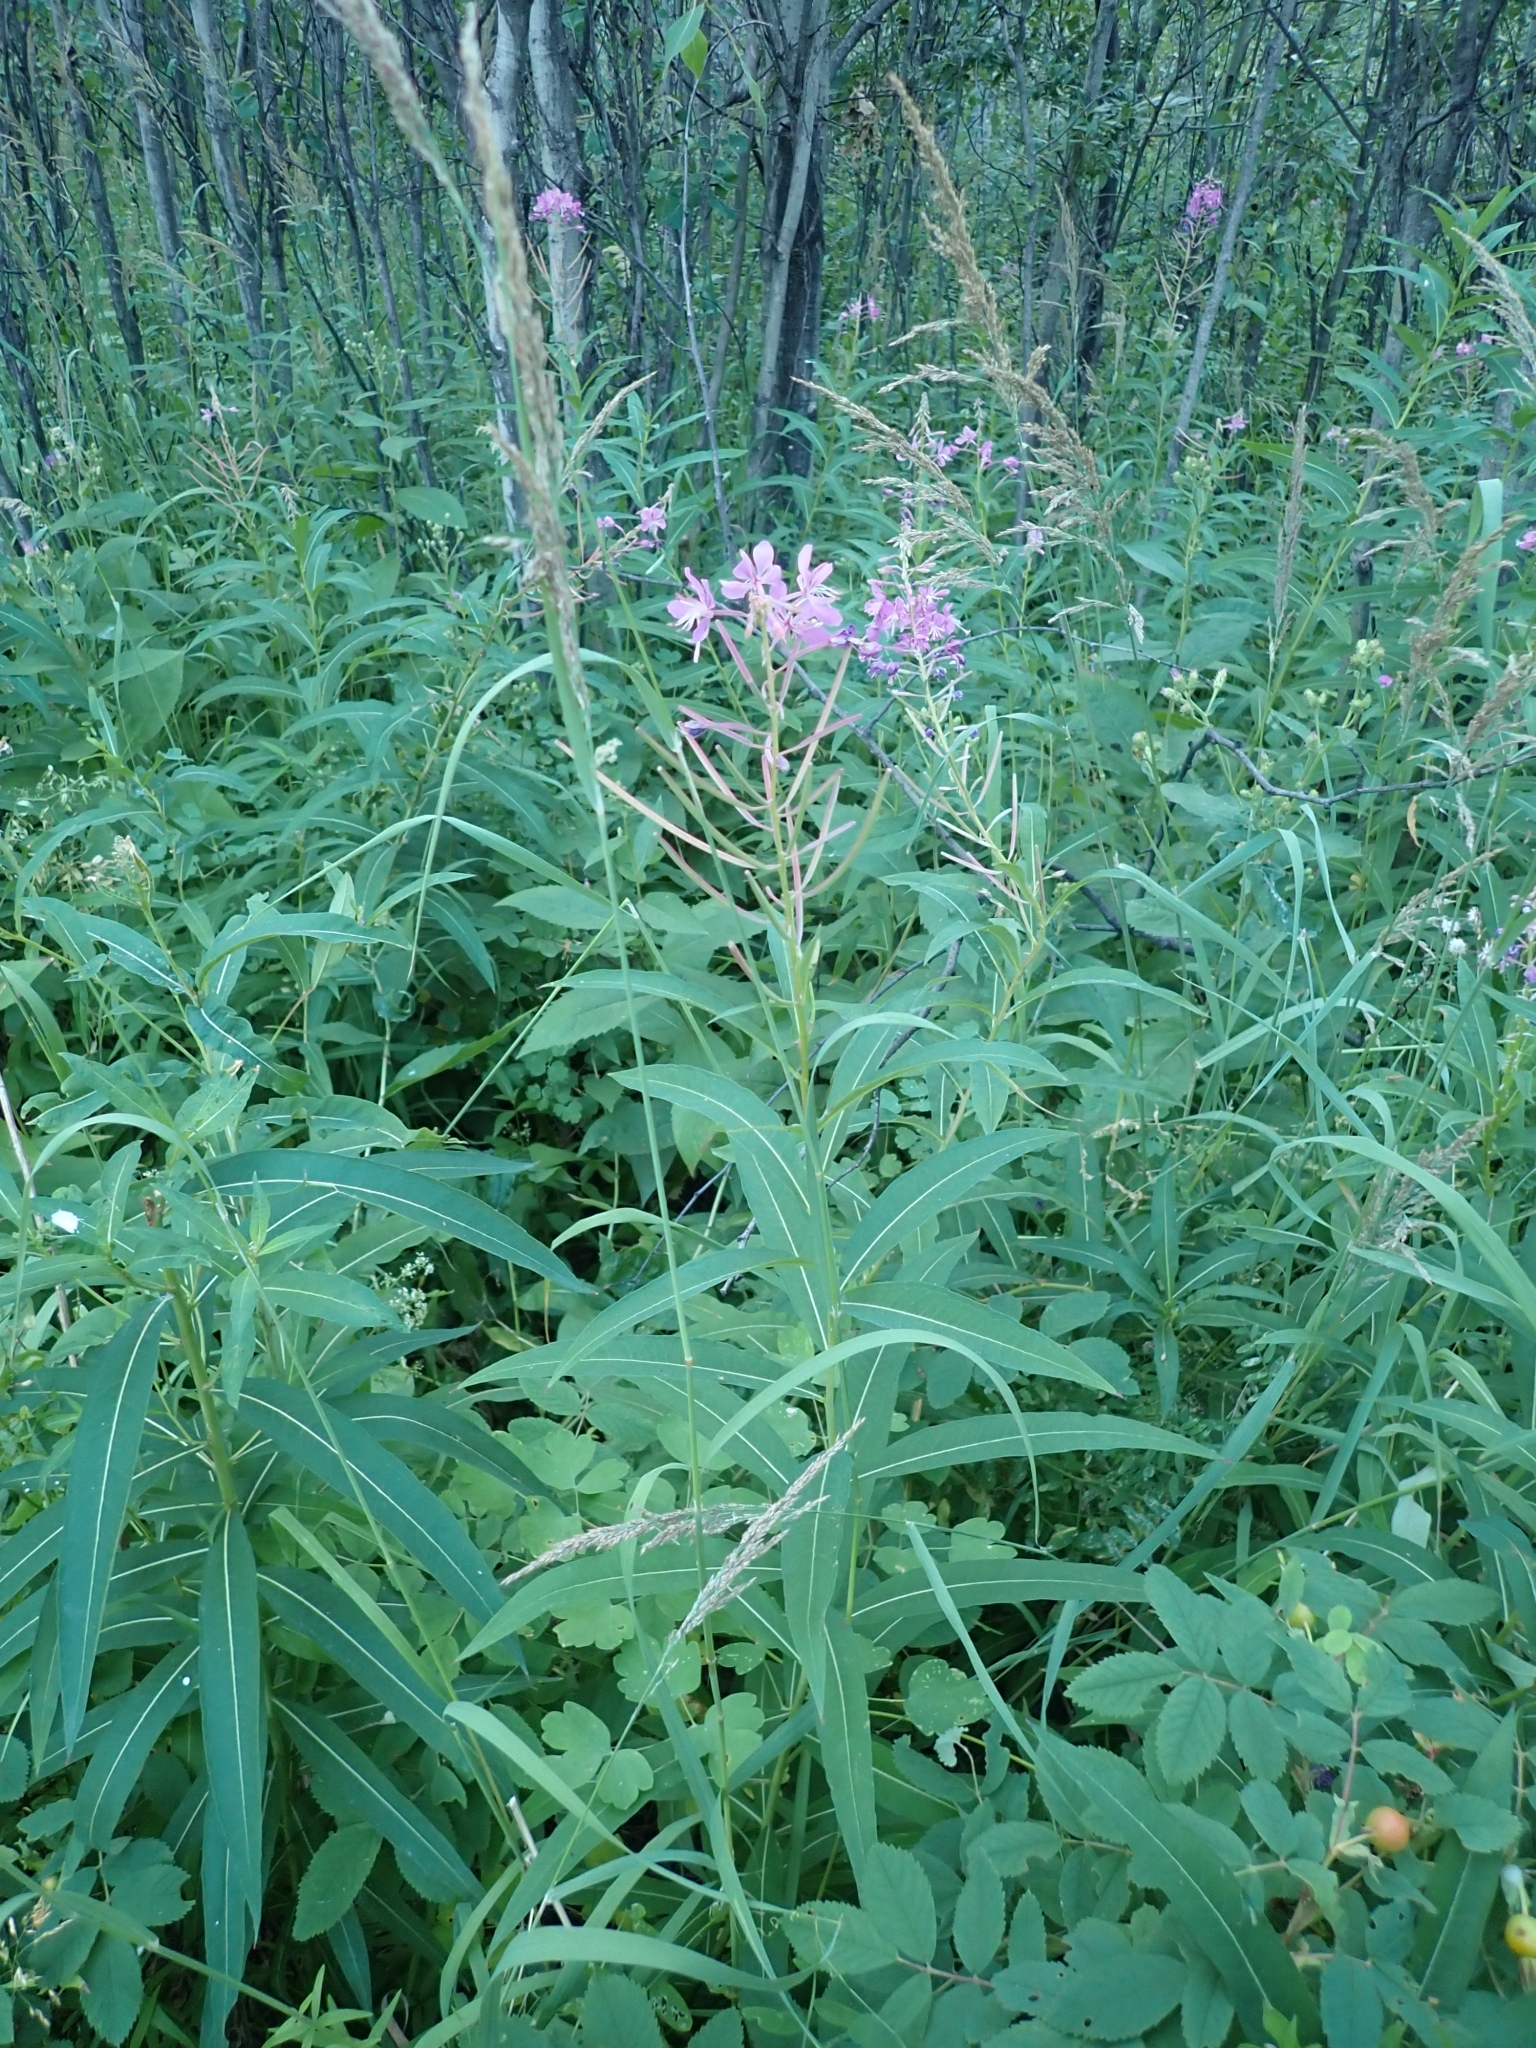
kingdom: Plantae
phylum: Tracheophyta
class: Magnoliopsida
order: Myrtales
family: Onagraceae
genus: Chamaenerion
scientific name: Chamaenerion angustifolium
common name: Fireweed
